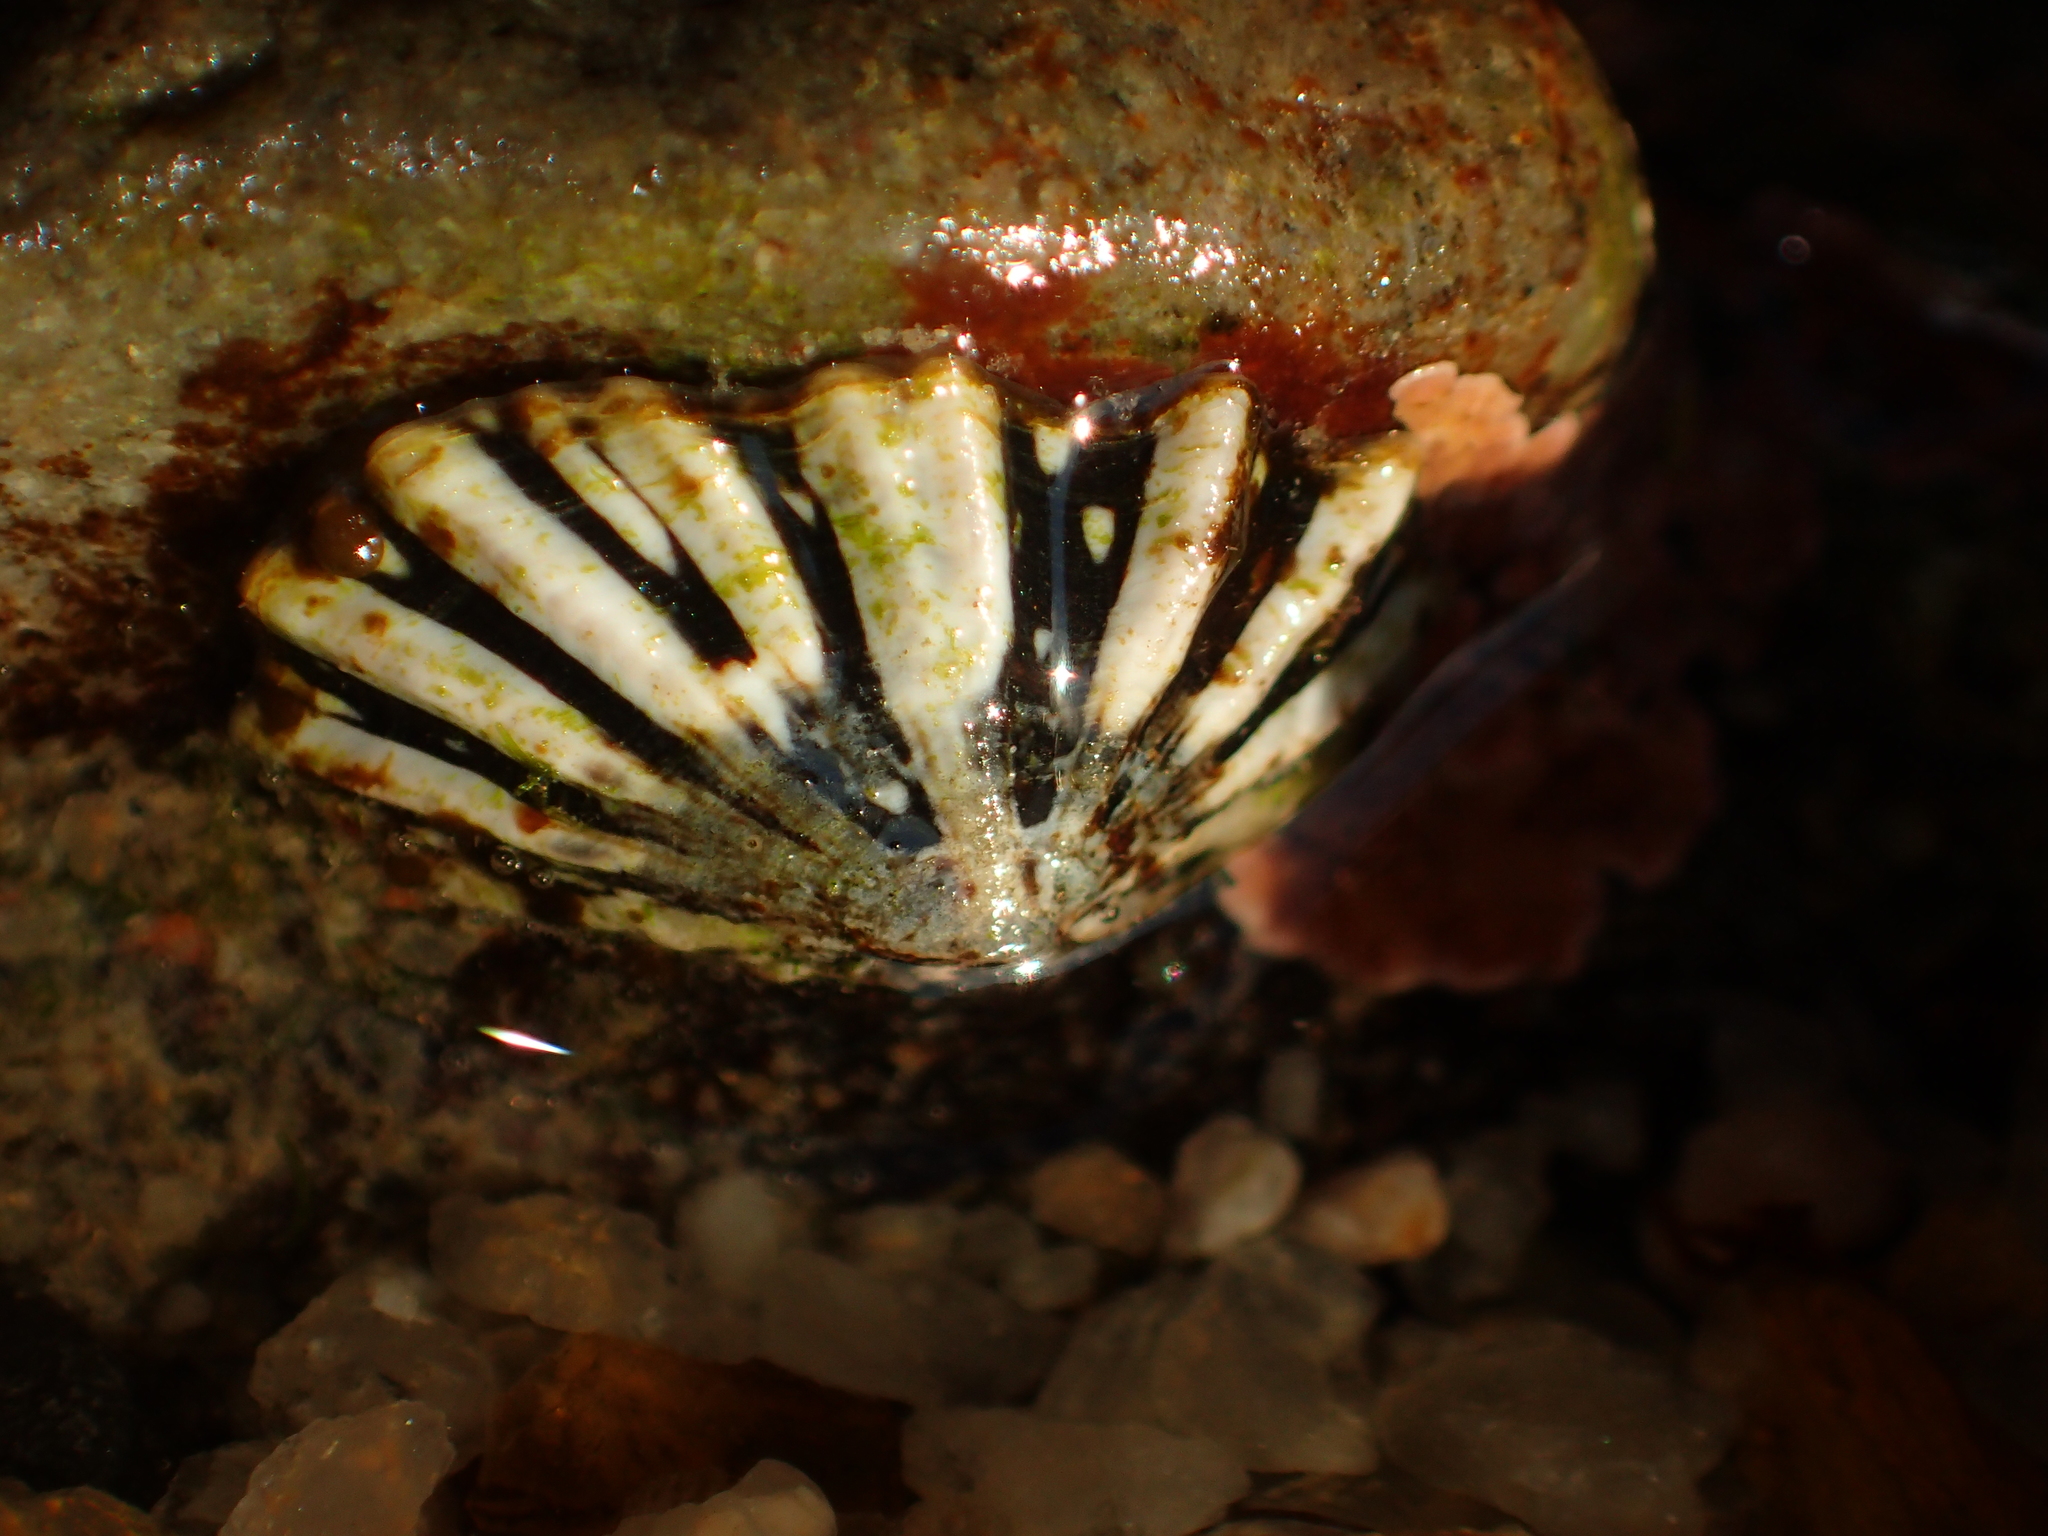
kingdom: Animalia
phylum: Mollusca
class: Gastropoda
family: Lottiidae
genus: Patelloida
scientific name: Patelloida corticata
